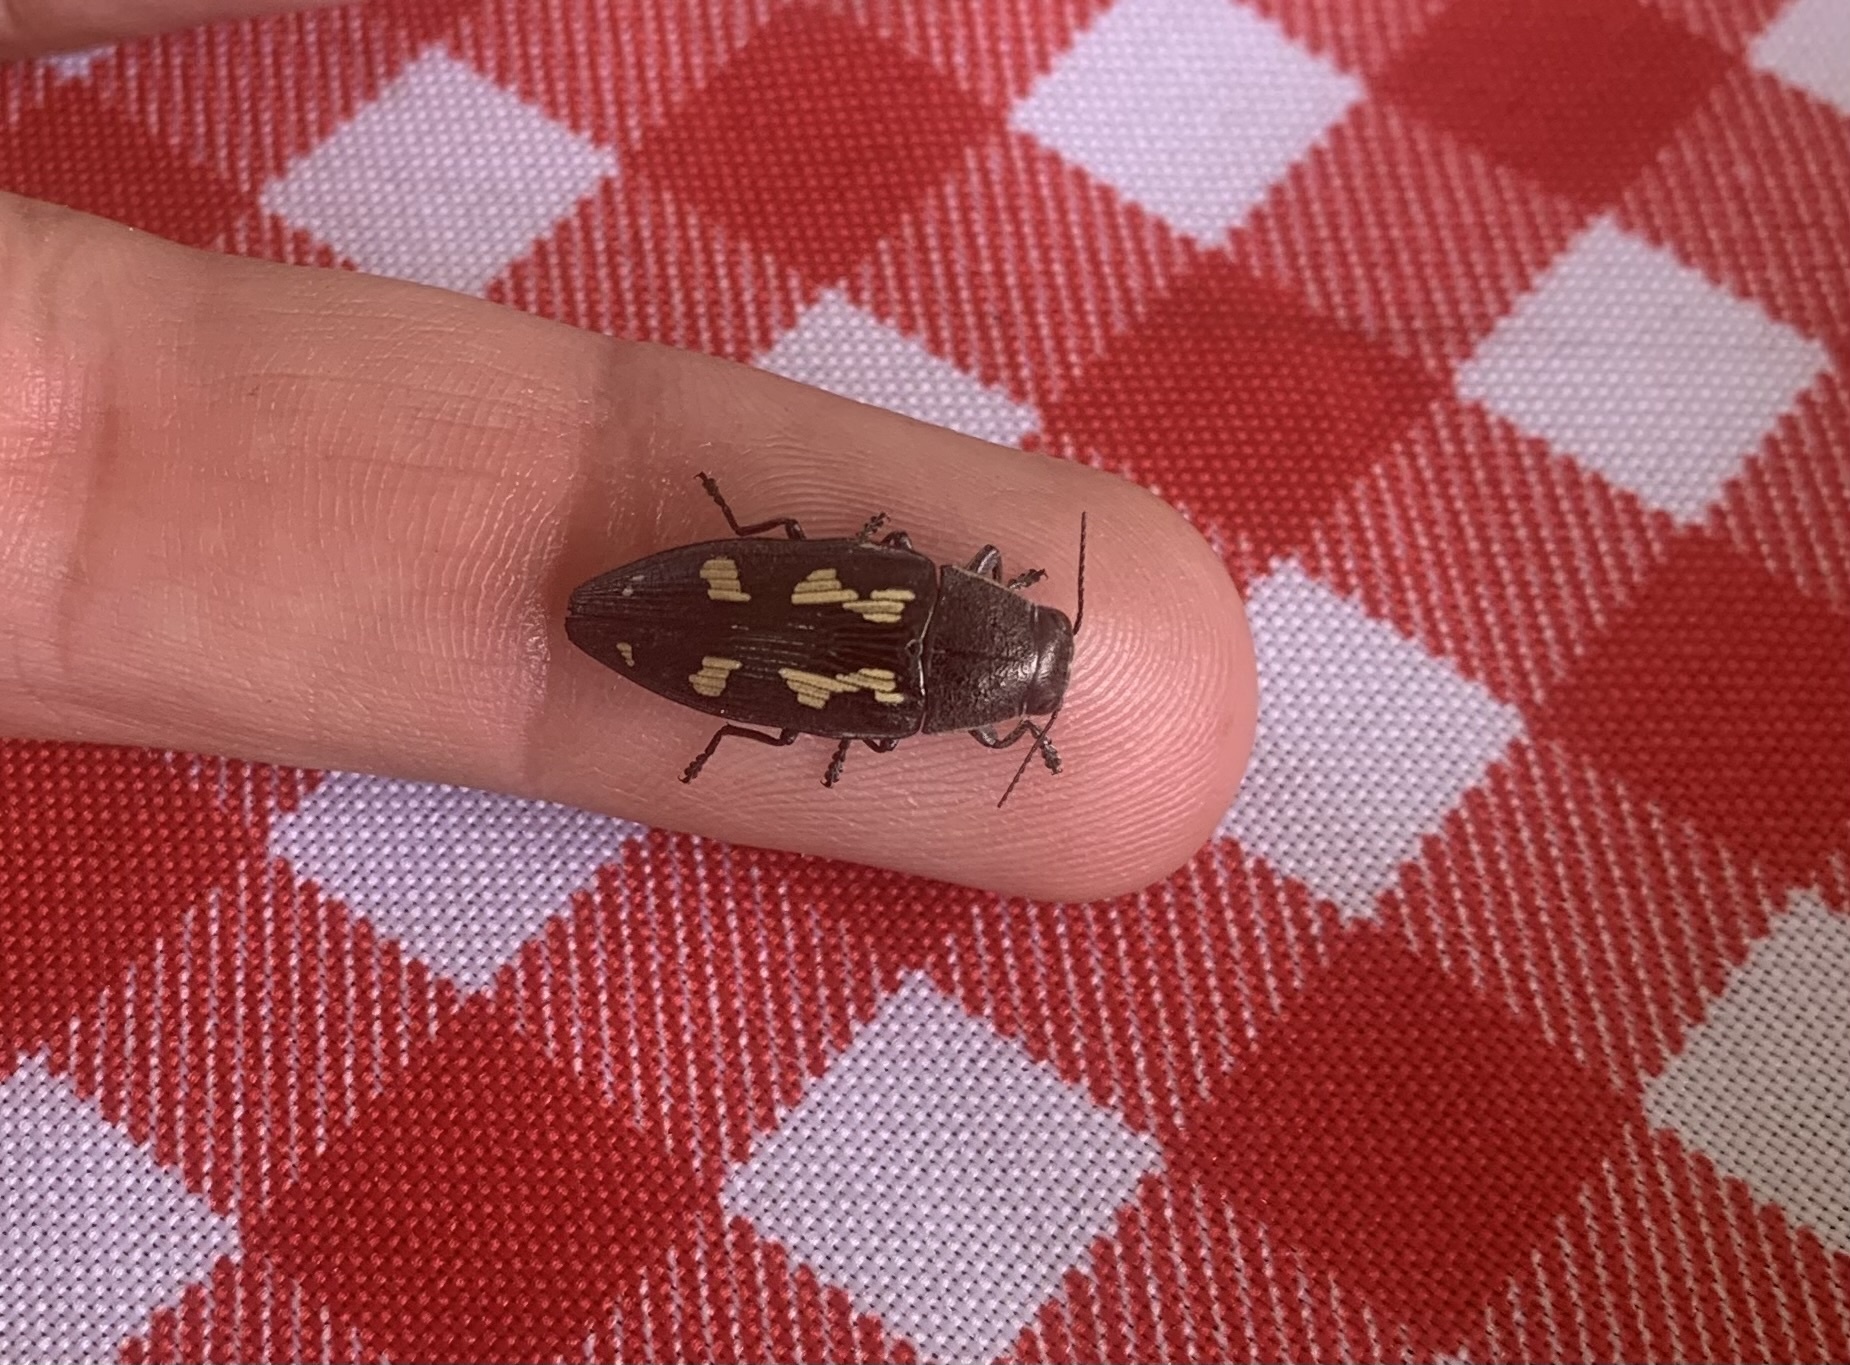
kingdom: Animalia
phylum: Arthropoda
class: Insecta
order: Coleoptera
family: Buprestidae
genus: Buprestis
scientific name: Buprestis novemmaculata
